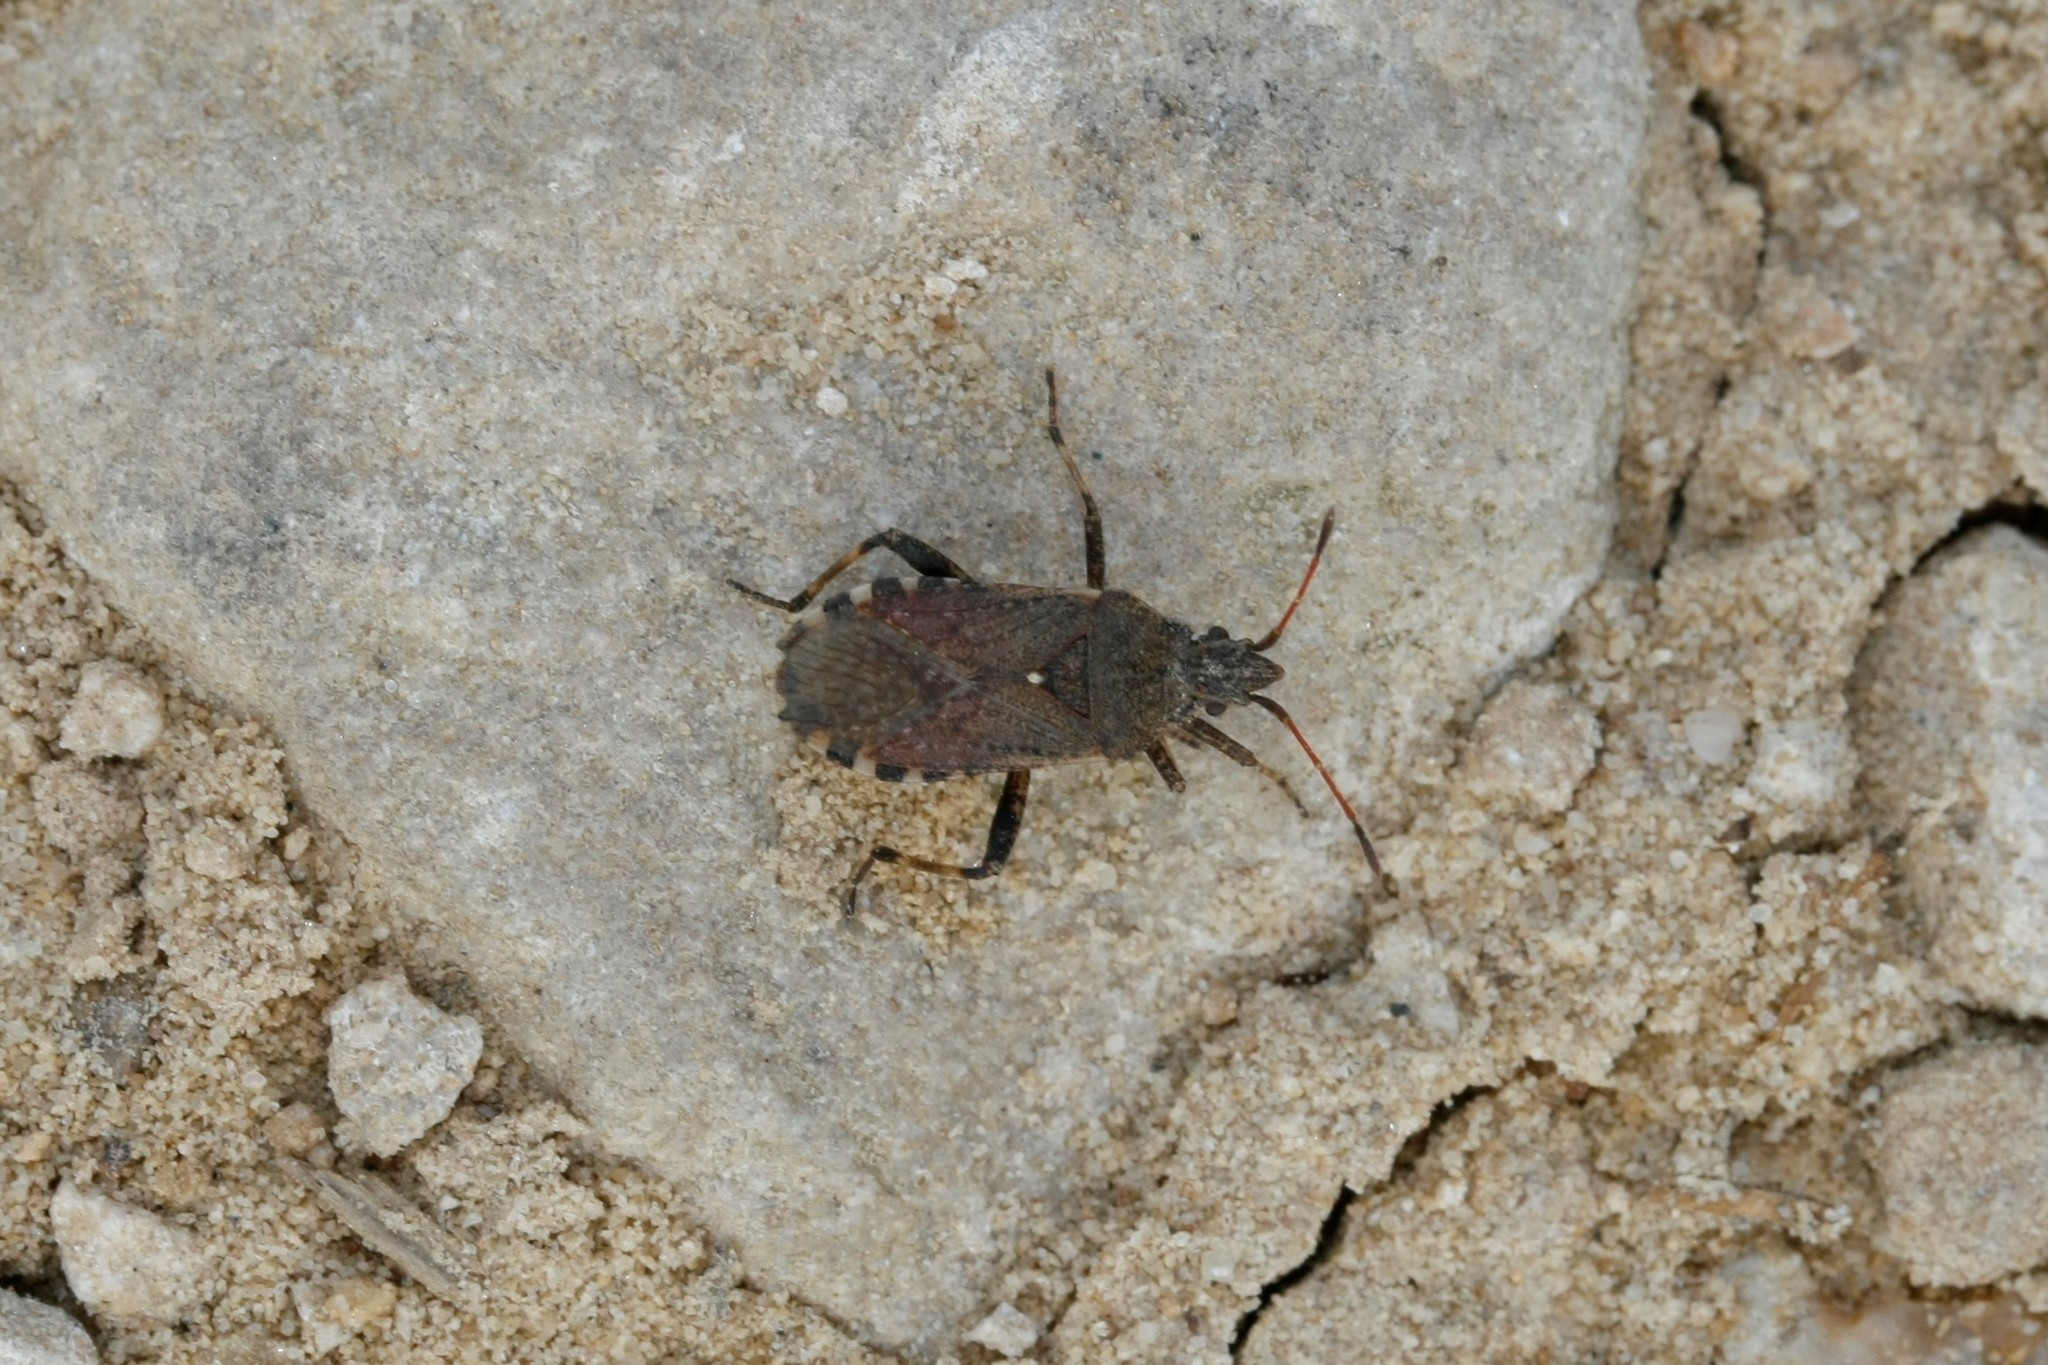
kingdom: Animalia
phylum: Arthropoda
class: Insecta
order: Hemiptera
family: Coreidae
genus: Ceraleptus
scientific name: Ceraleptus gracilicornis
